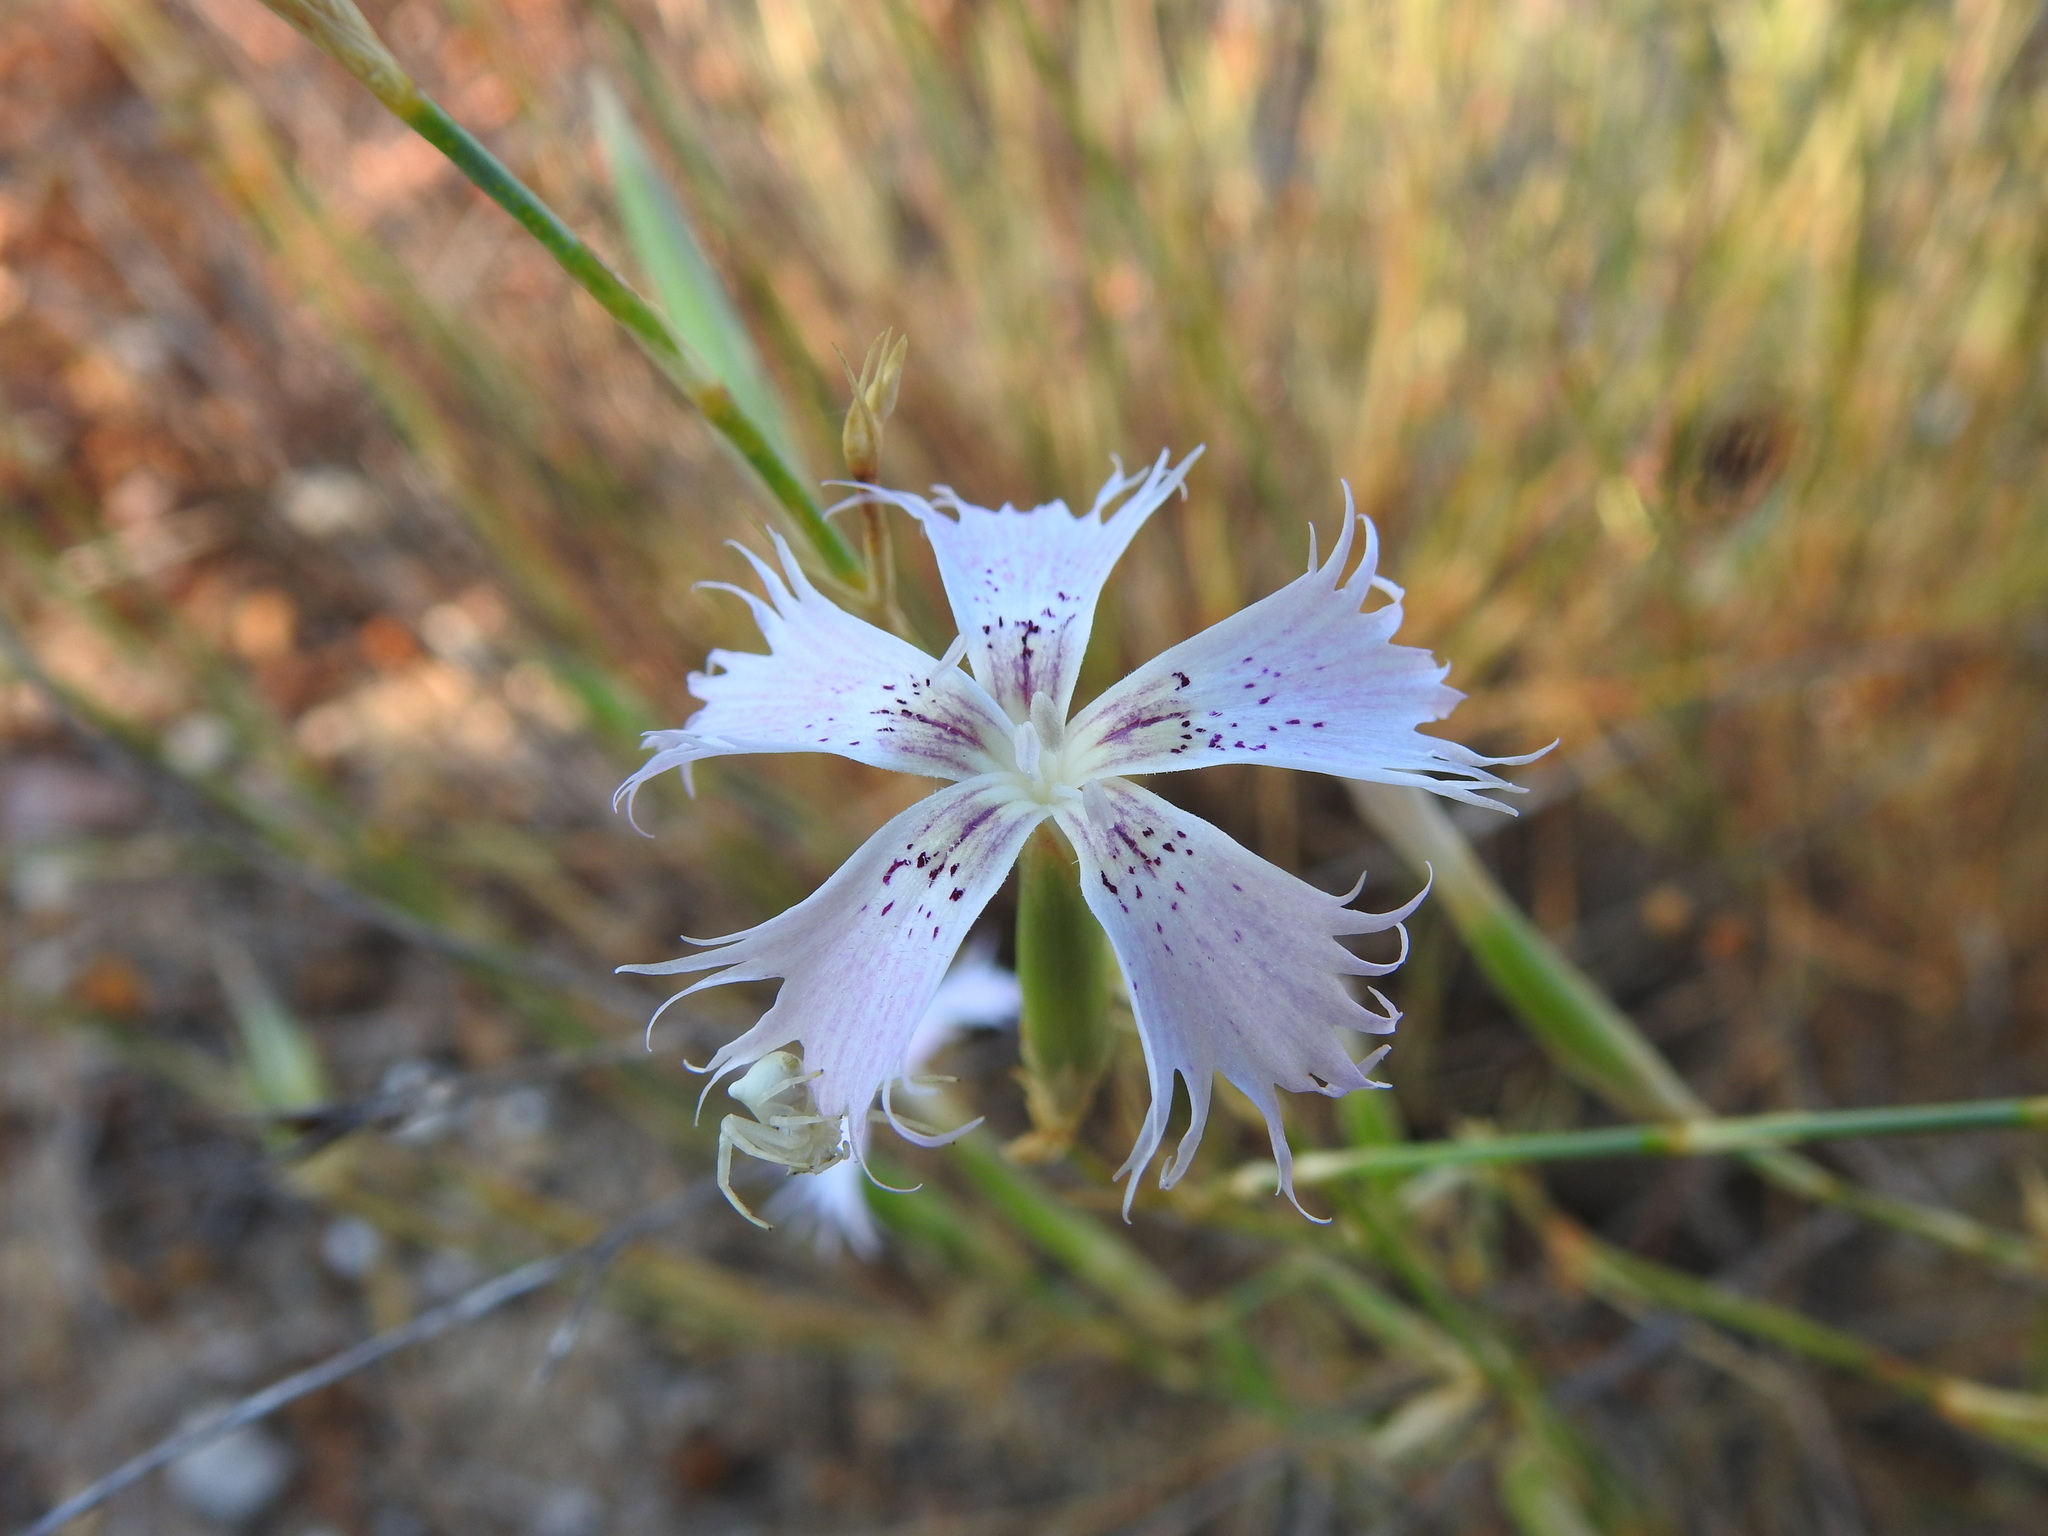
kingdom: Plantae
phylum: Tracheophyta
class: Magnoliopsida
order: Caryophyllales
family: Caryophyllaceae
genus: Dianthus
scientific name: Dianthus broteri
